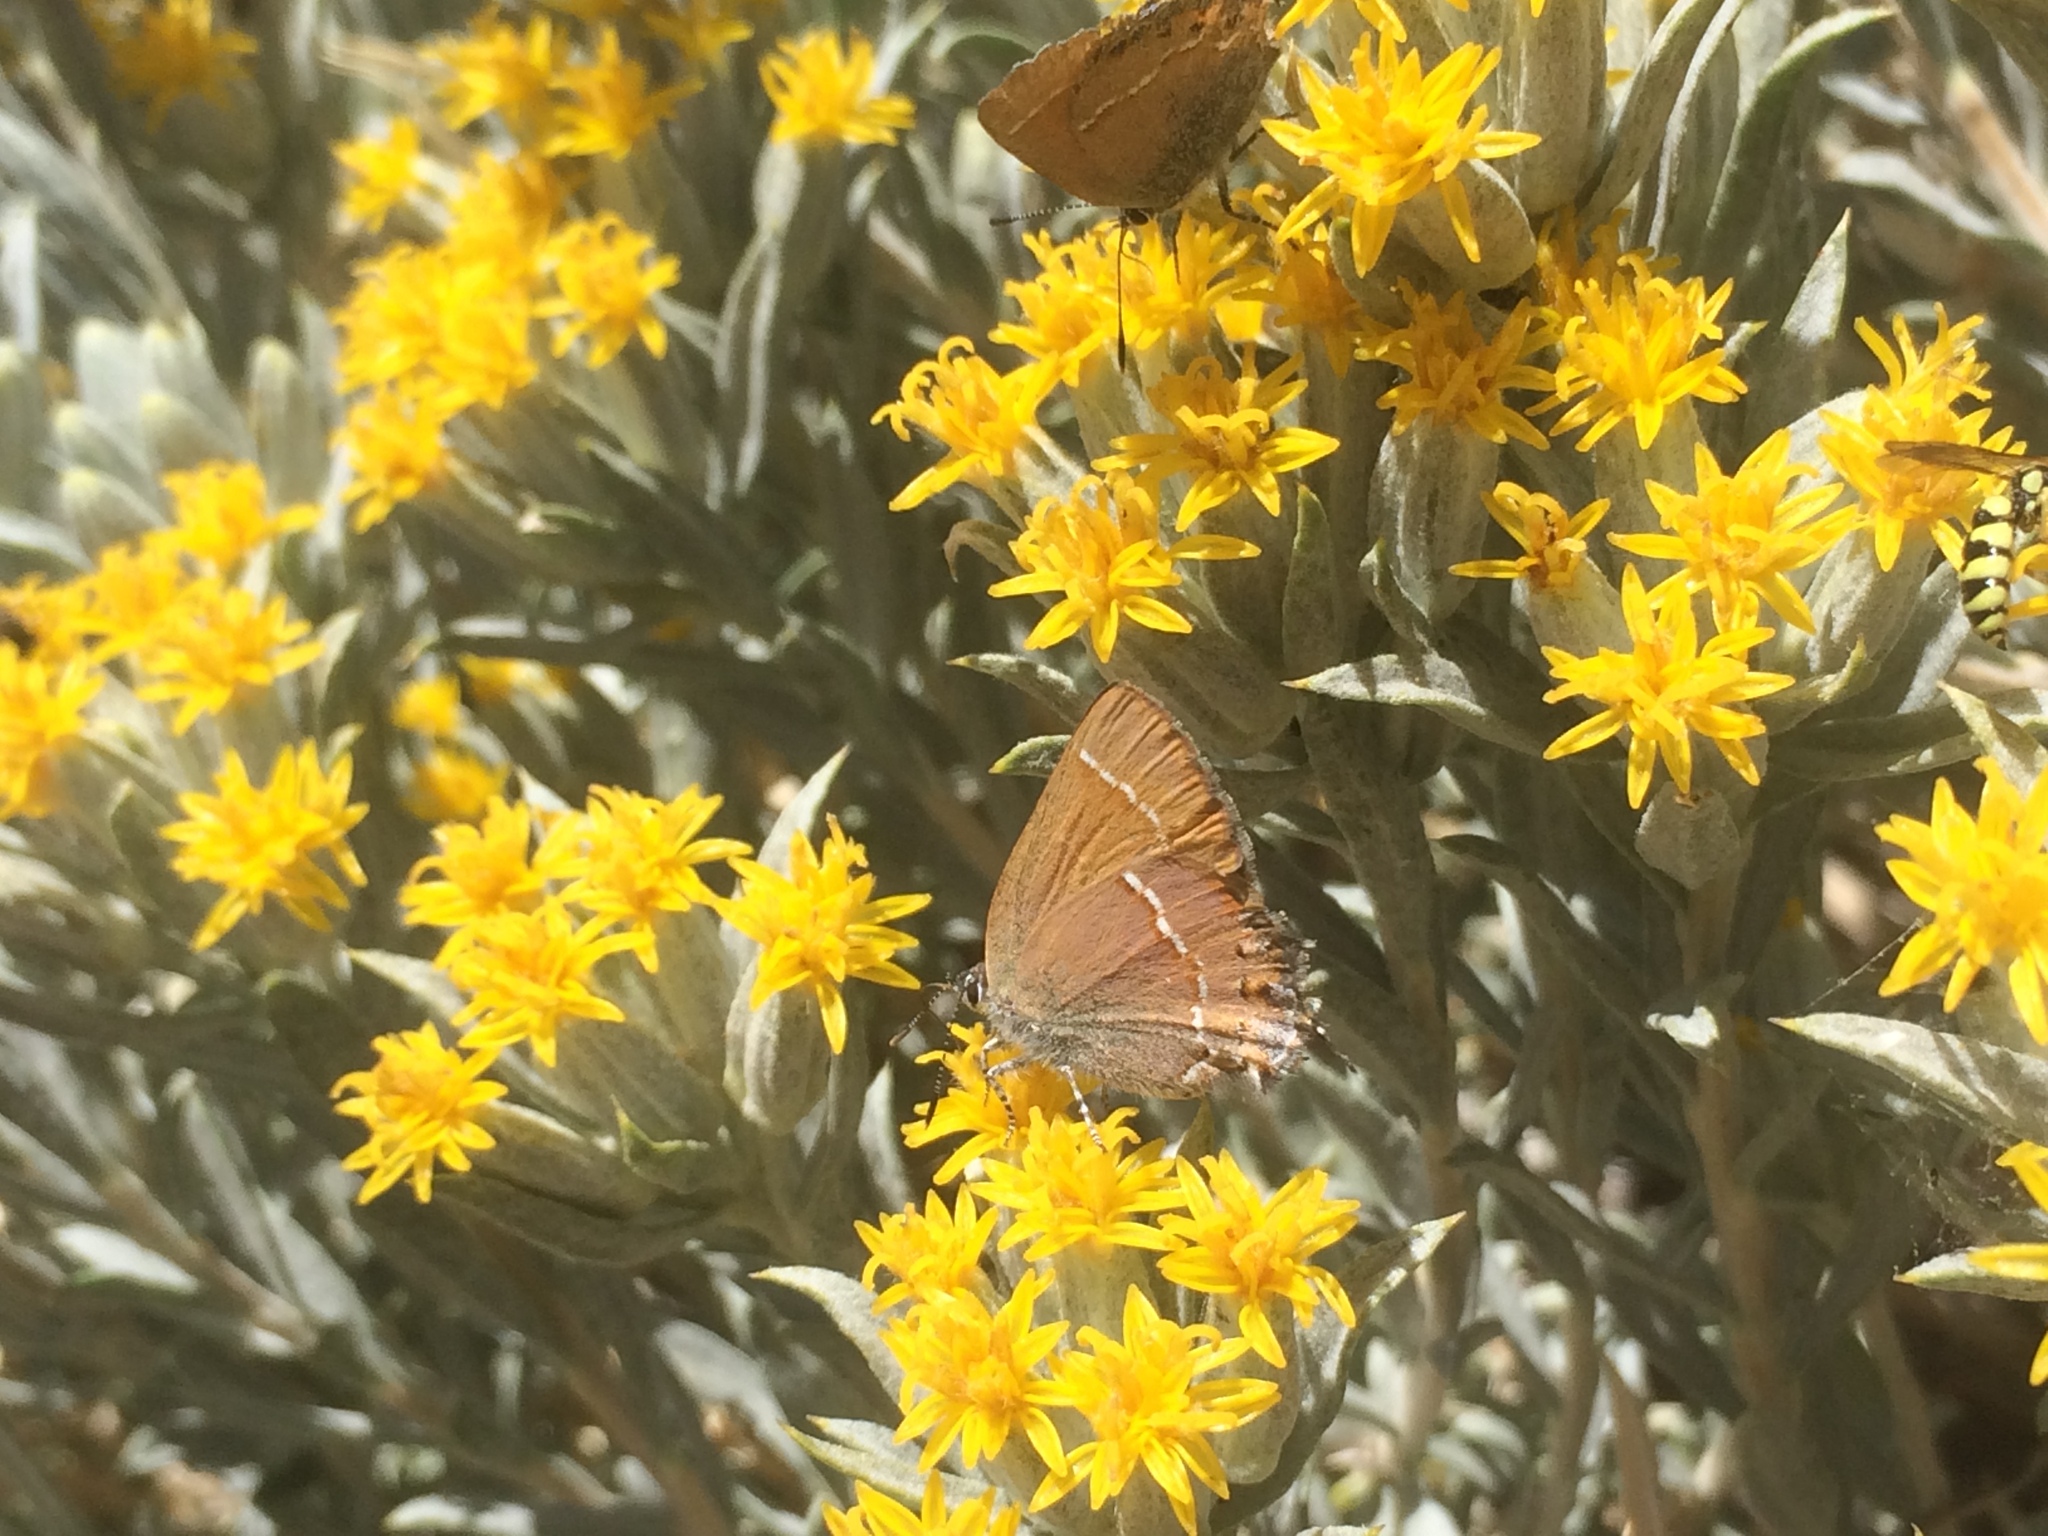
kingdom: Animalia
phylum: Arthropoda
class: Insecta
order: Lepidoptera
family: Lycaenidae
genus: Mitoura
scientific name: Mitoura gryneus
